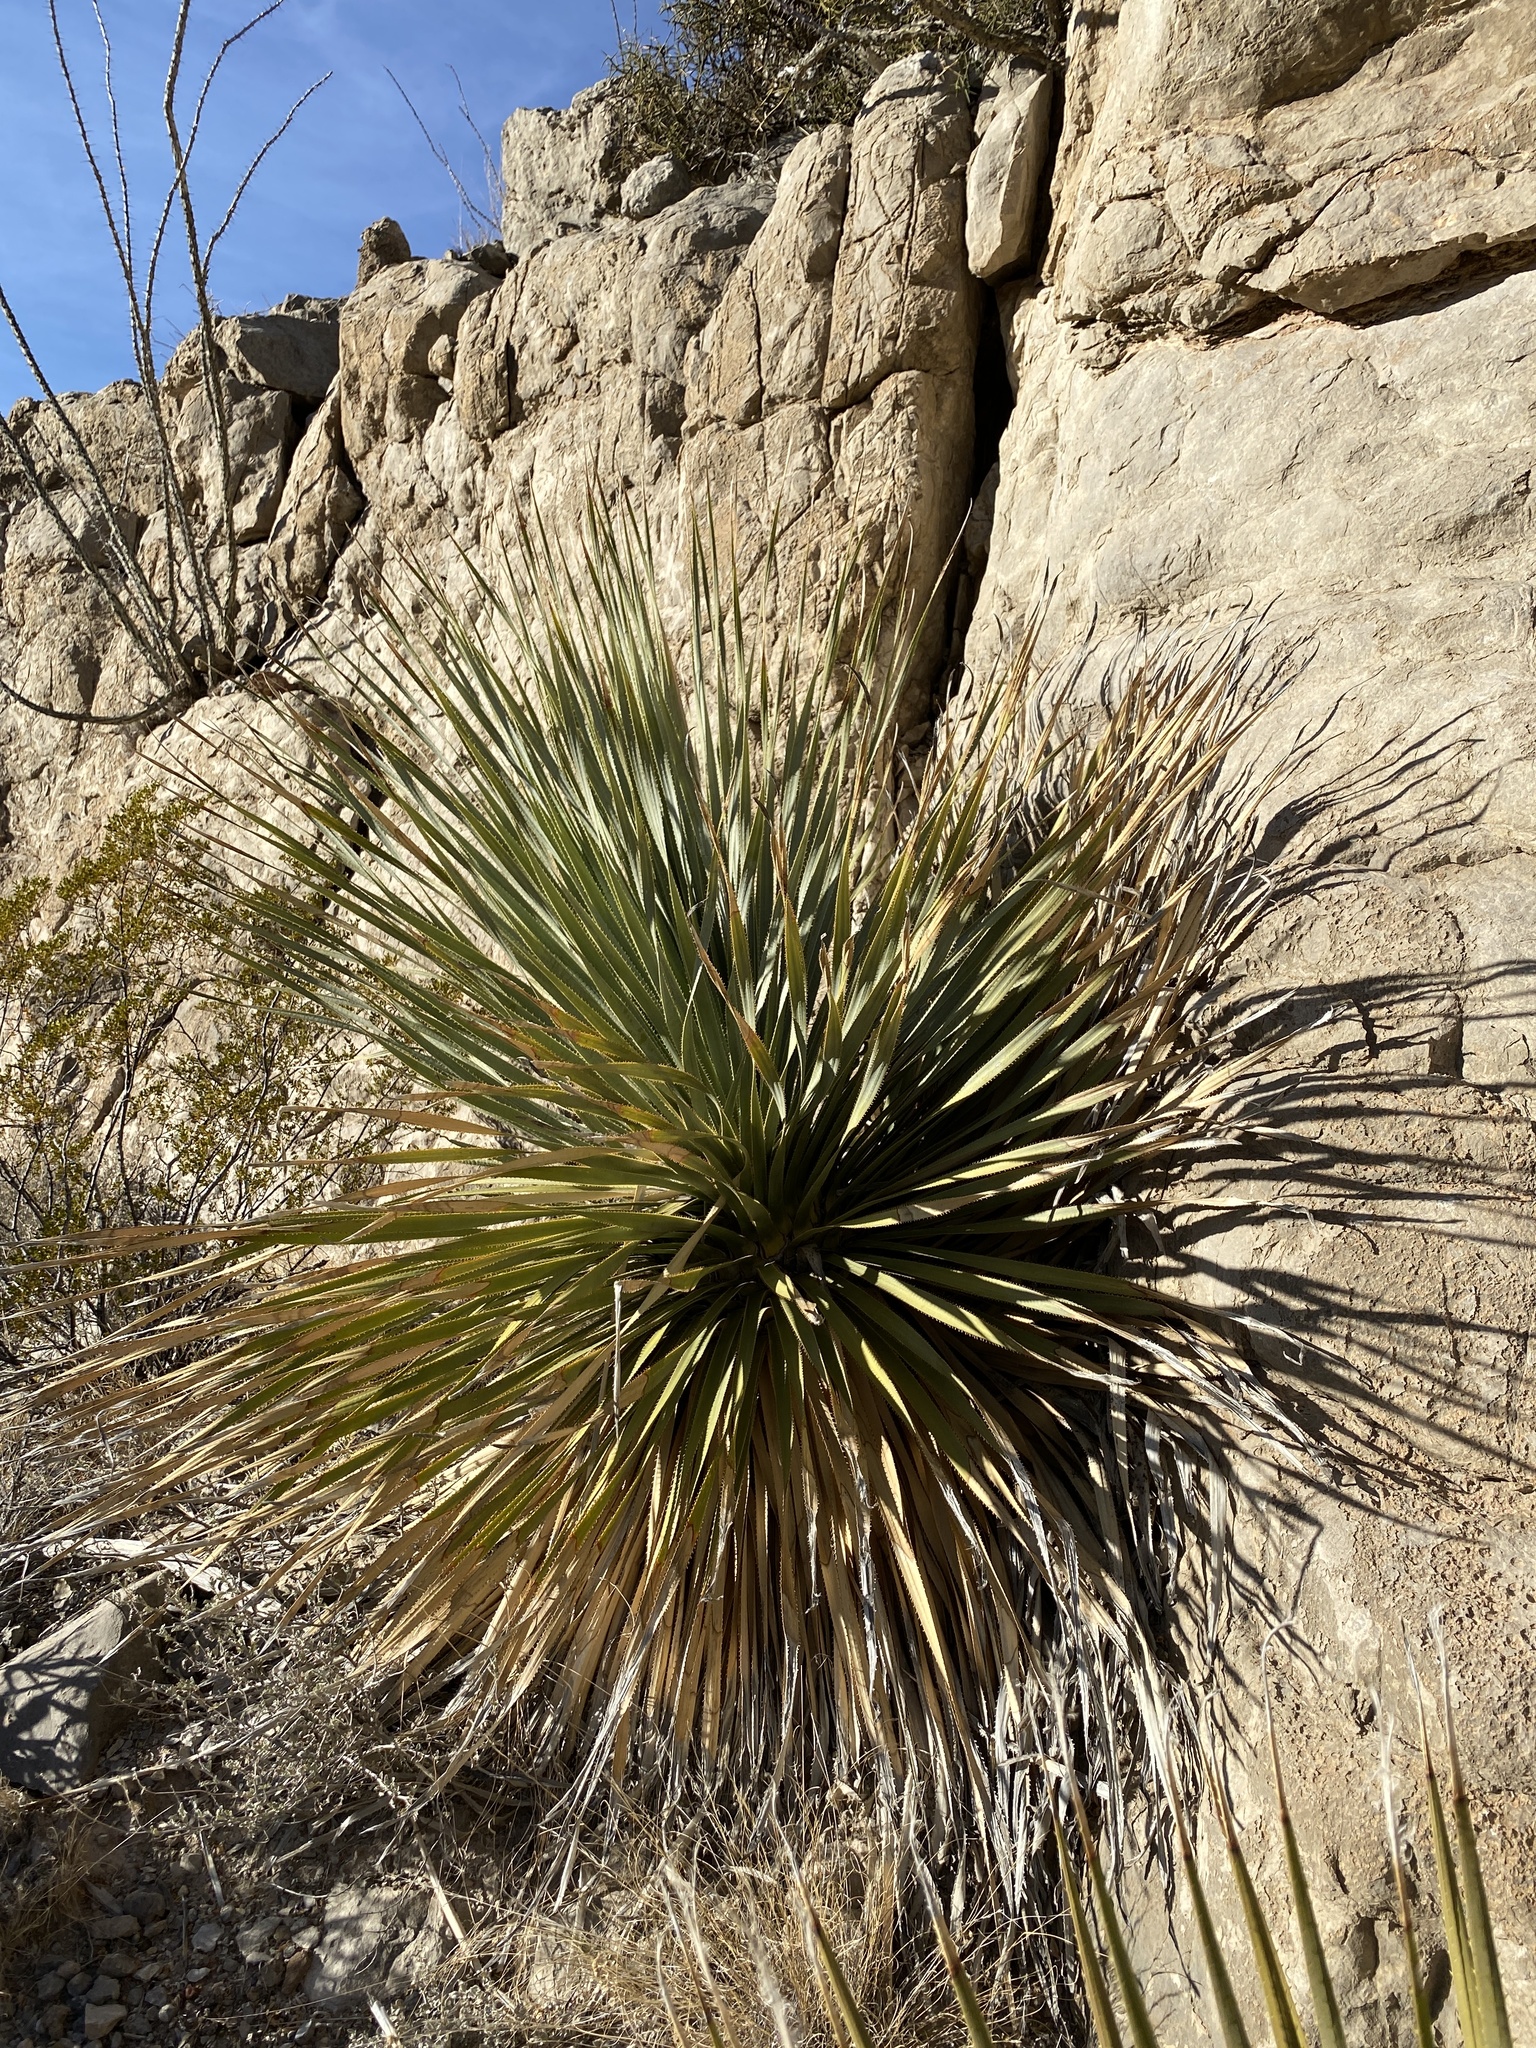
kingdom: Plantae
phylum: Tracheophyta
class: Liliopsida
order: Asparagales
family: Asparagaceae
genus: Dasylirion
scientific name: Dasylirion wheeleri
